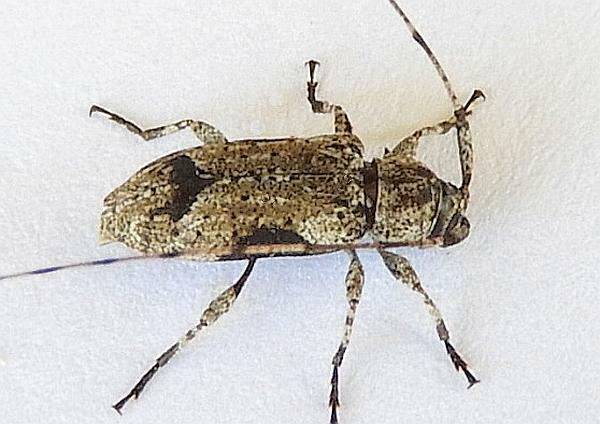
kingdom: Animalia
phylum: Arthropoda
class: Insecta
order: Coleoptera
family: Cerambycidae
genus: Sternidius
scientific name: Sternidius decorus
